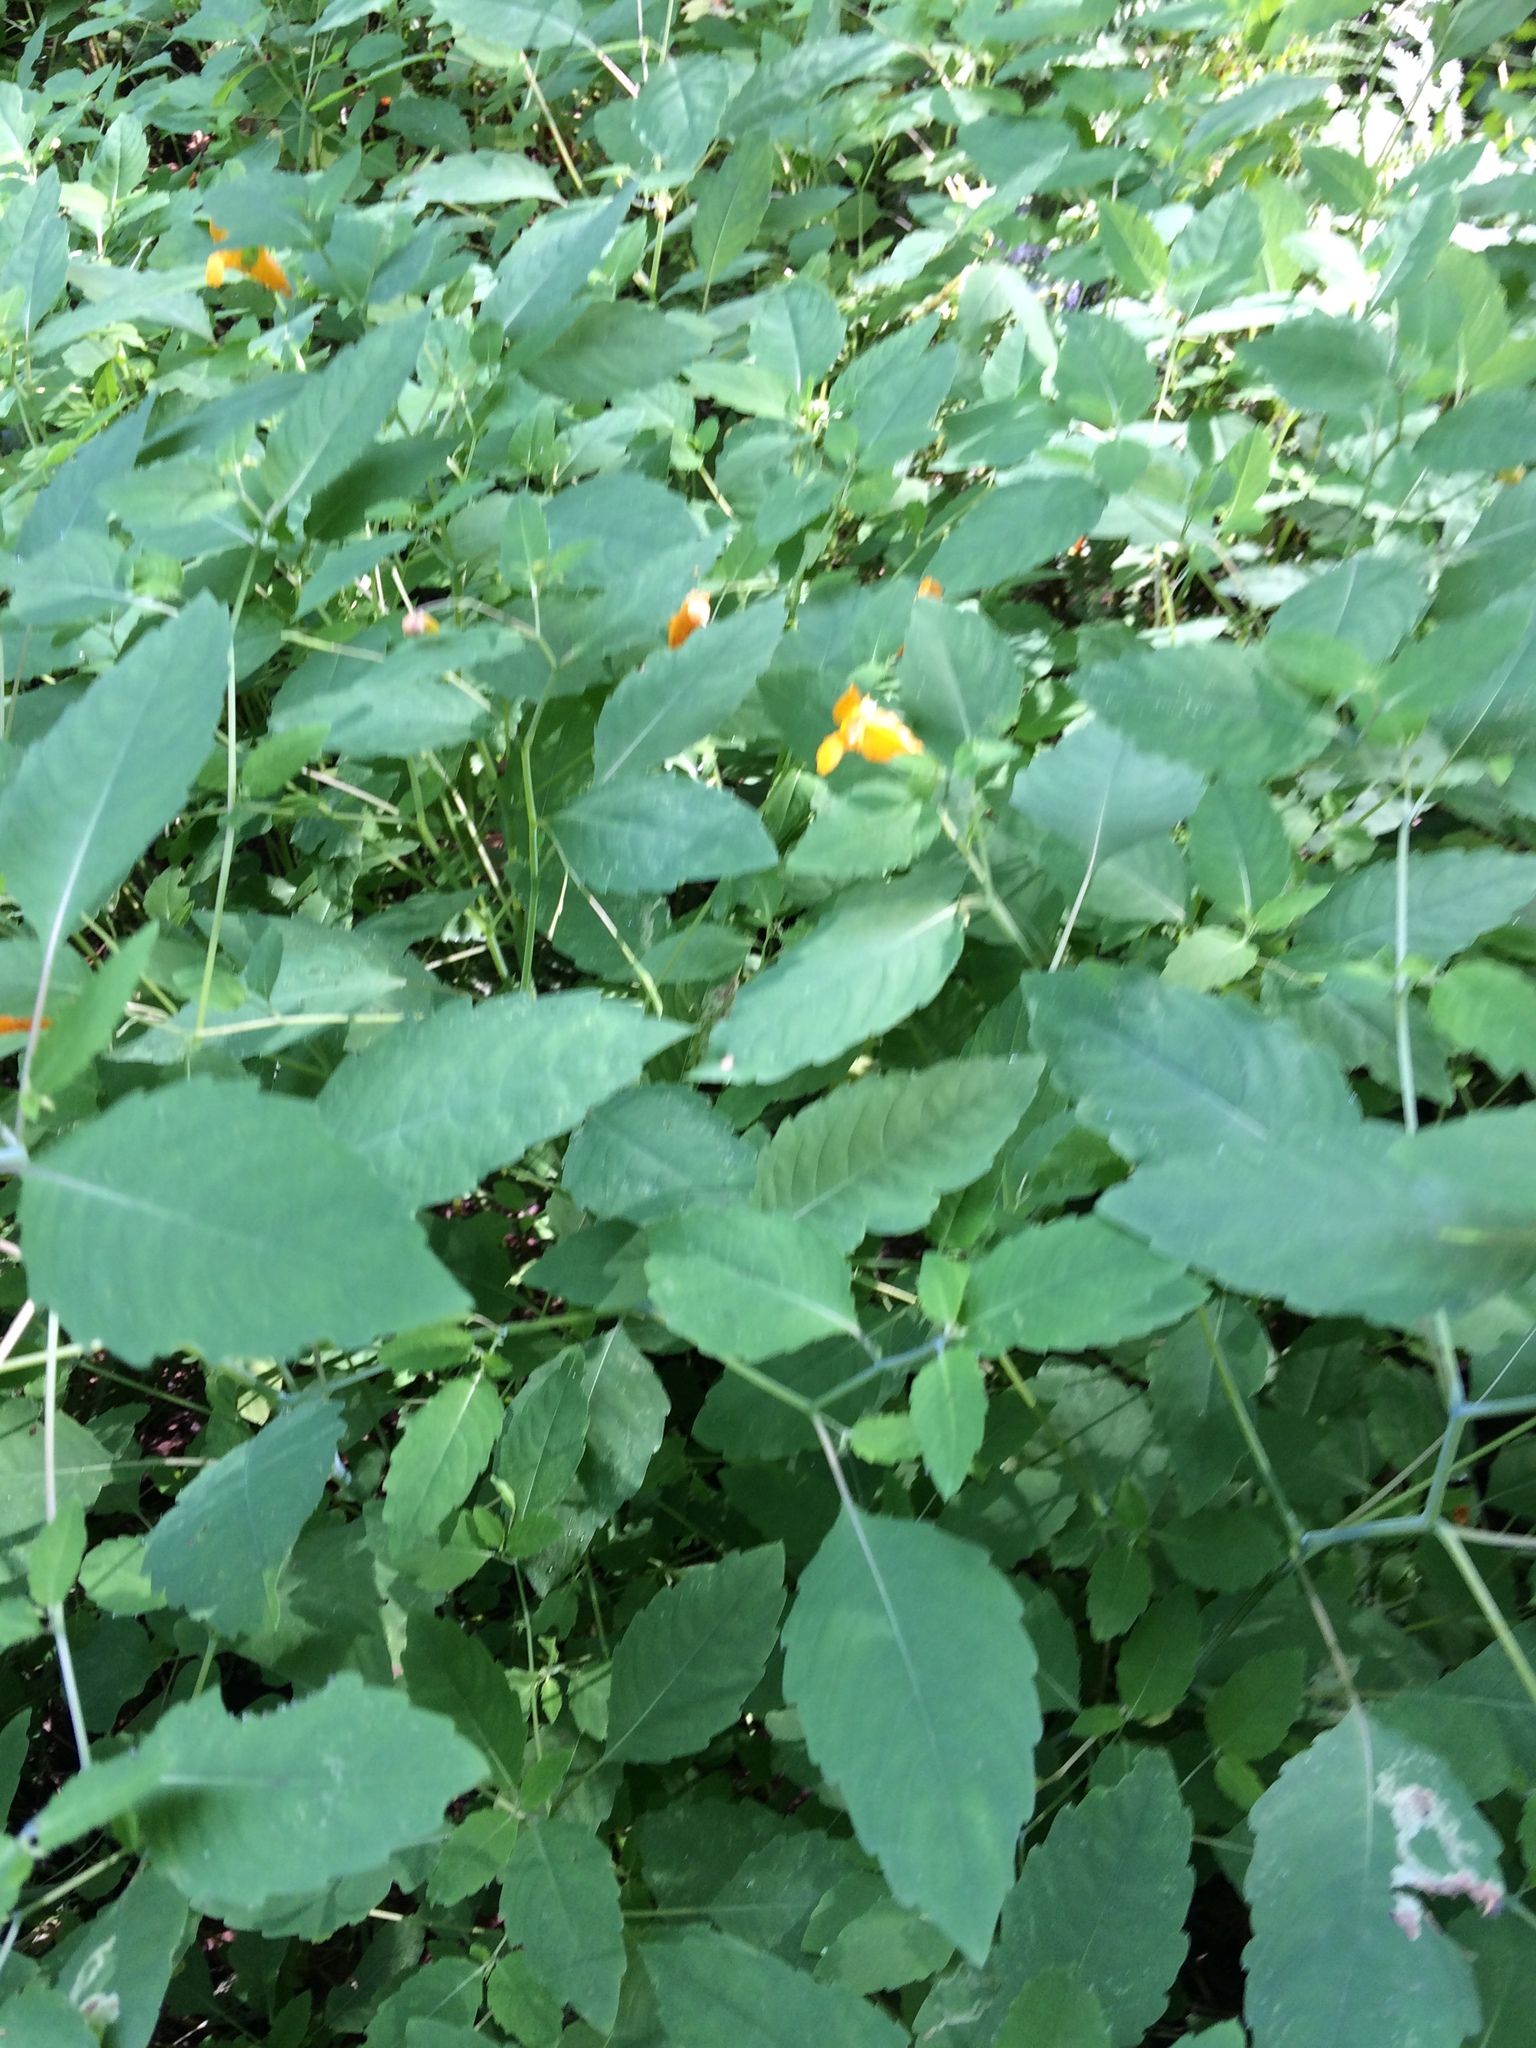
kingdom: Plantae
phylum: Tracheophyta
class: Magnoliopsida
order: Ericales
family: Balsaminaceae
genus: Impatiens
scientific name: Impatiens capensis
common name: Orange balsam
